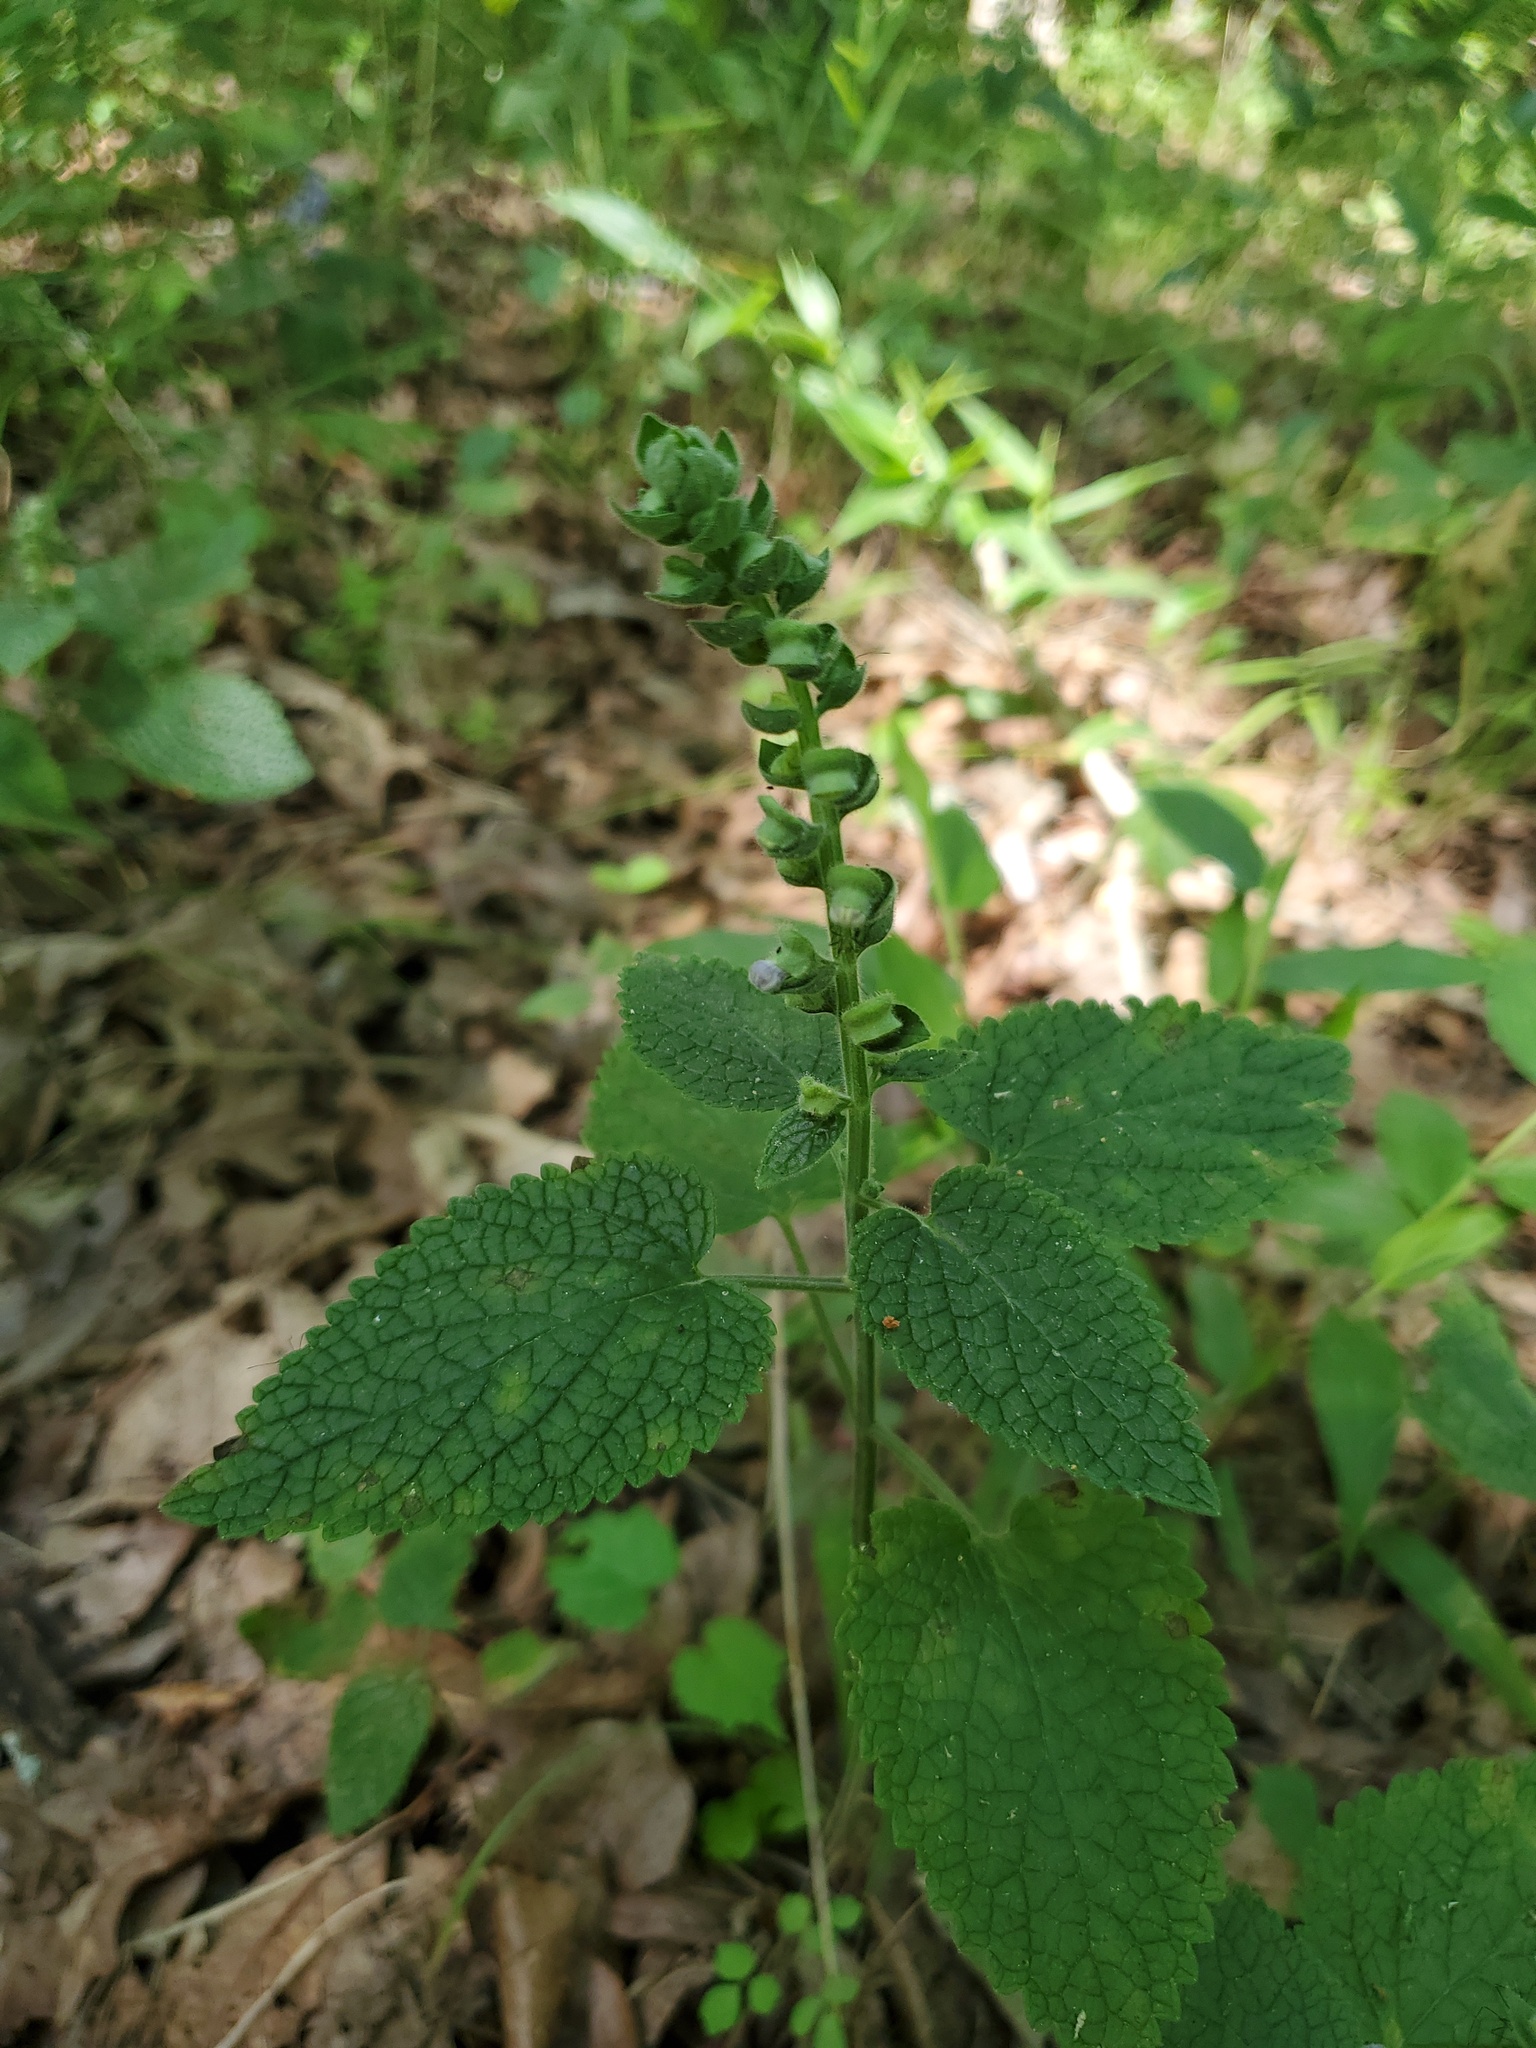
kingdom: Plantae
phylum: Tracheophyta
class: Magnoliopsida
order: Lamiales
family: Lamiaceae
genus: Scutellaria
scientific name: Scutellaria ovata
